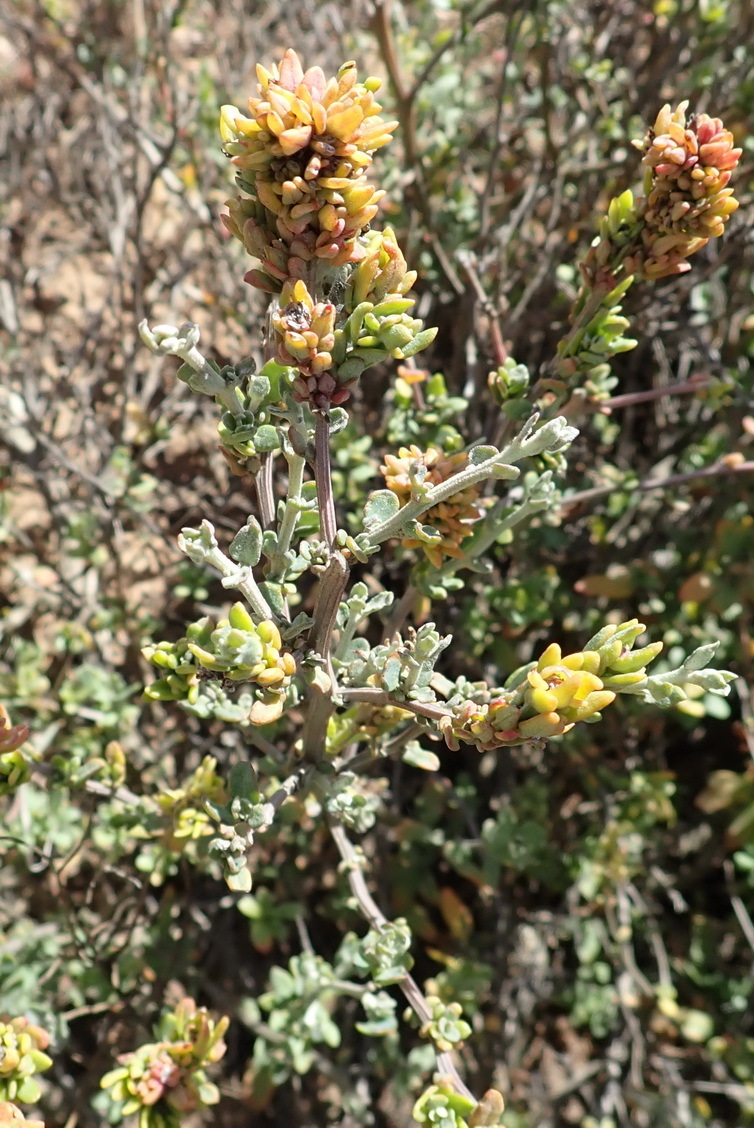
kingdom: Plantae
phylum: Tracheophyta
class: Magnoliopsida
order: Caryophyllales
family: Amaranthaceae
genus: Exomis
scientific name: Exomis microphylla
